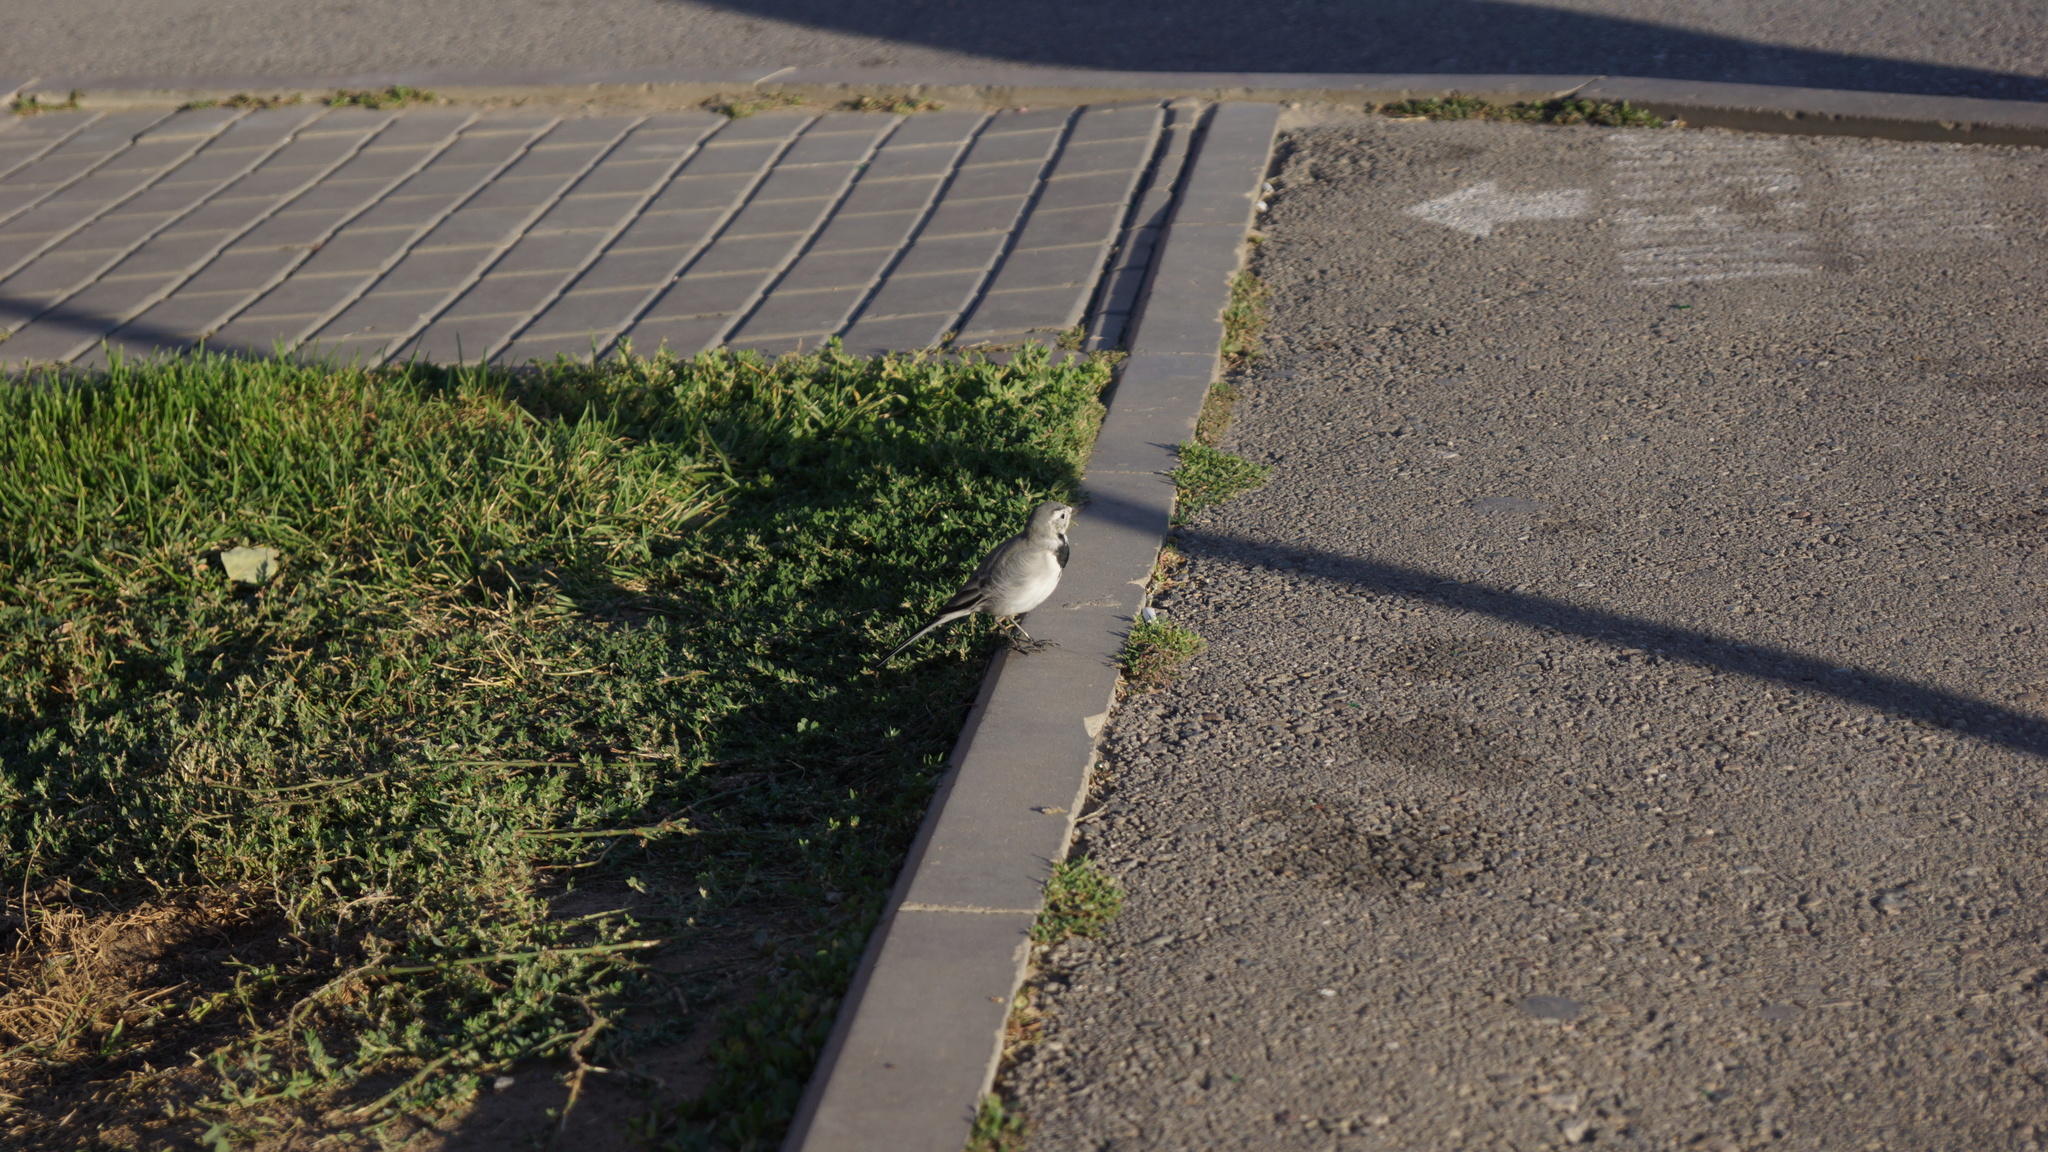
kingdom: Animalia
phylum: Chordata
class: Aves
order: Passeriformes
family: Motacillidae
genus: Motacilla
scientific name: Motacilla alba
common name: White wagtail
